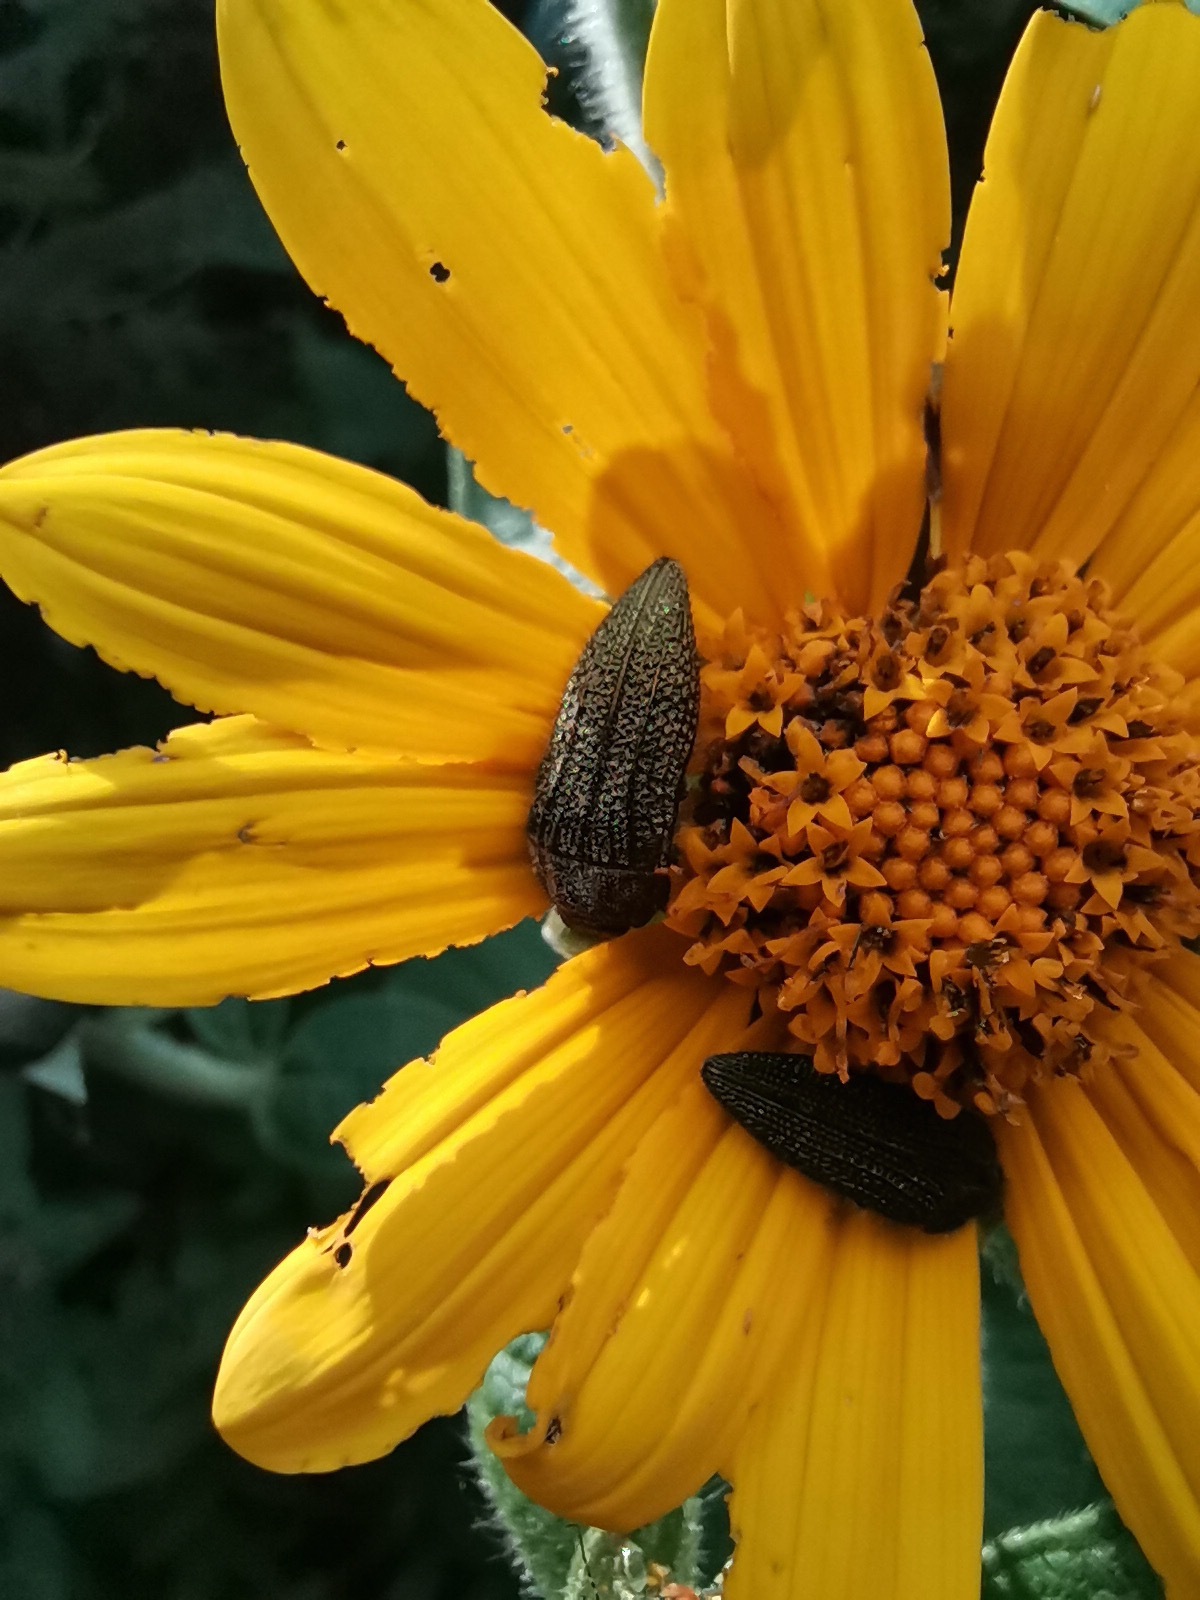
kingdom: Animalia
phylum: Arthropoda
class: Insecta
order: Coleoptera
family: Buprestidae
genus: Acmaeodera
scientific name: Acmaeodera cuprina
